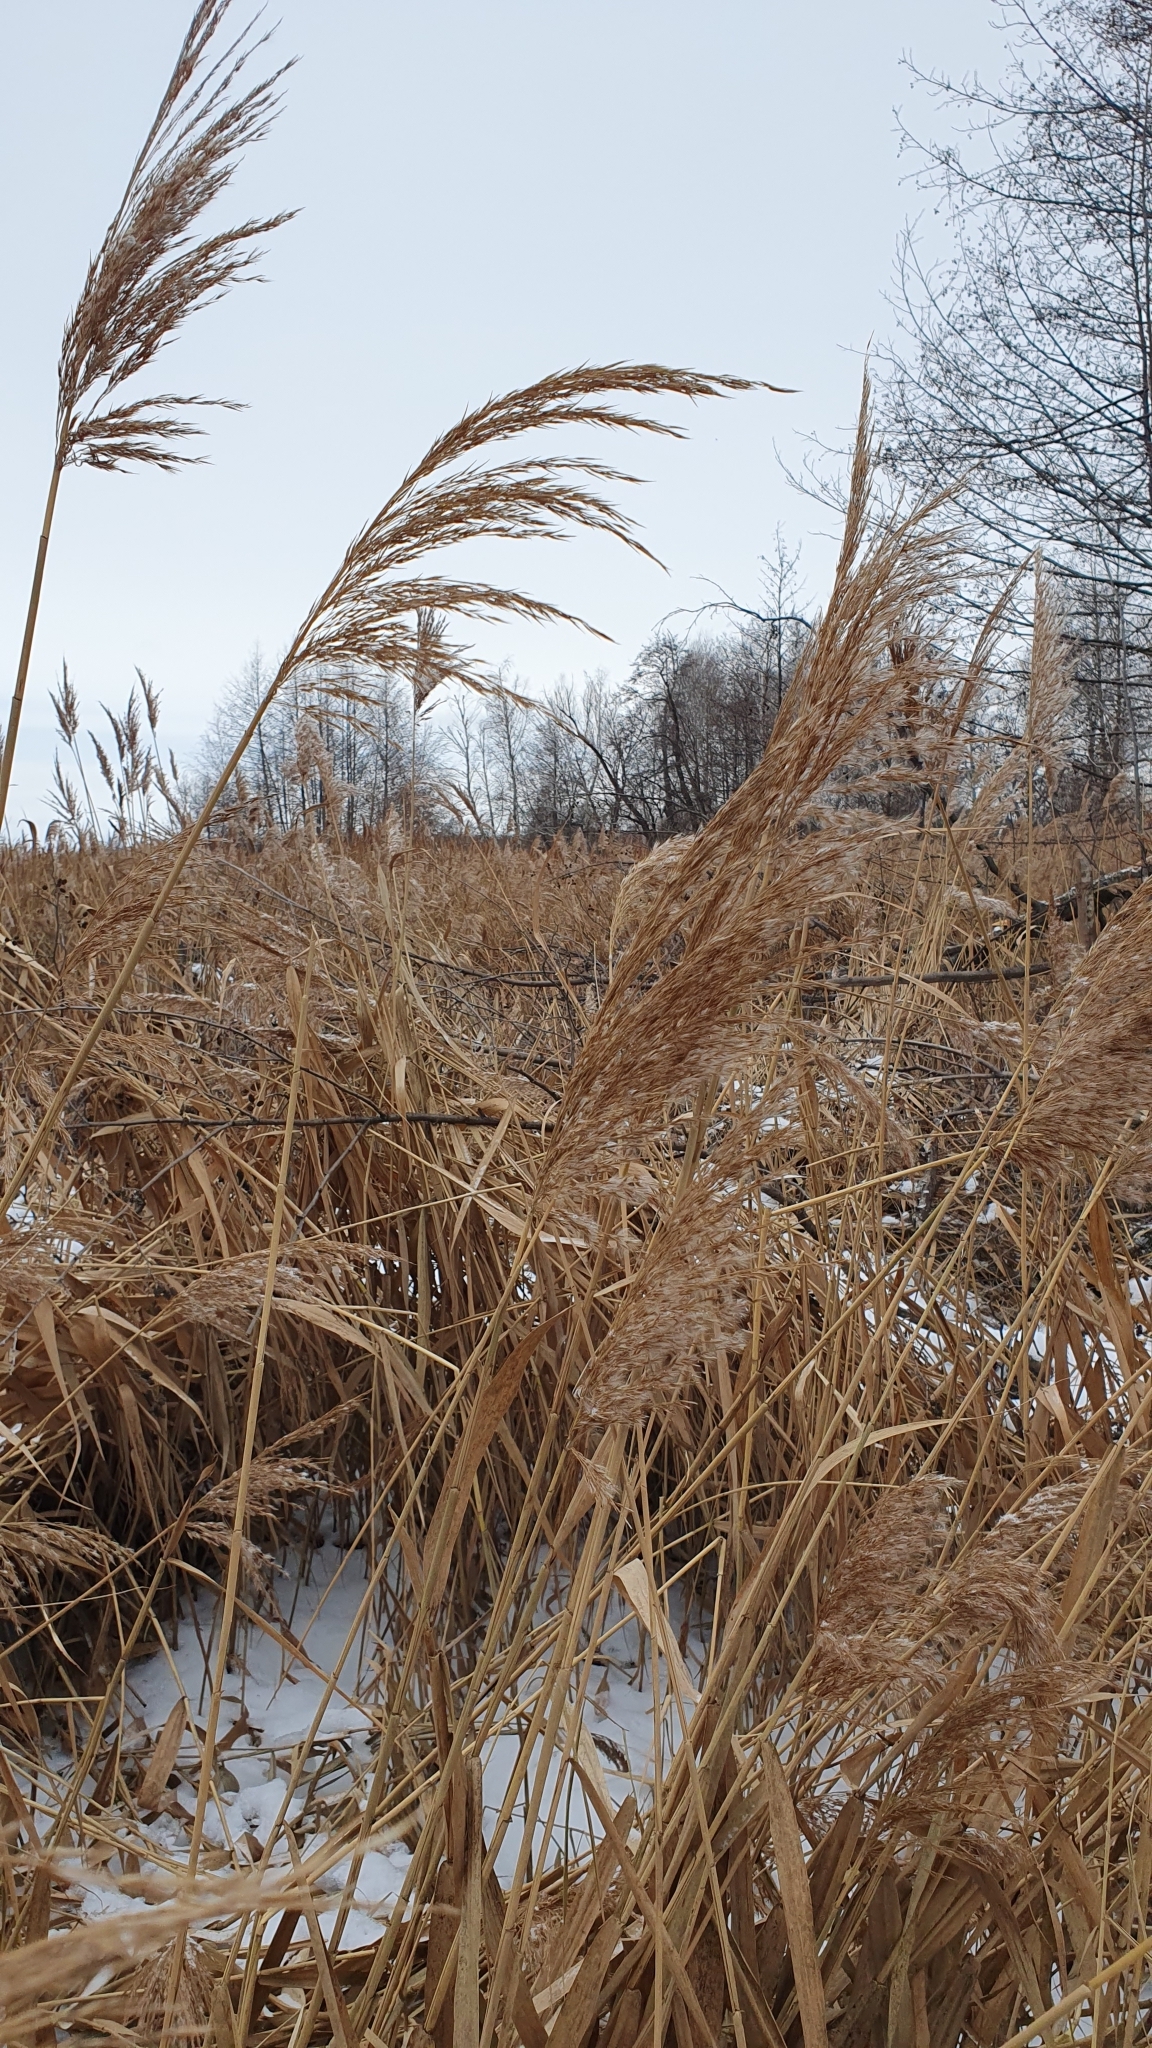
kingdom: Plantae
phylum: Tracheophyta
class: Liliopsida
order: Poales
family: Poaceae
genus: Phragmites
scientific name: Phragmites australis
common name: Common reed
